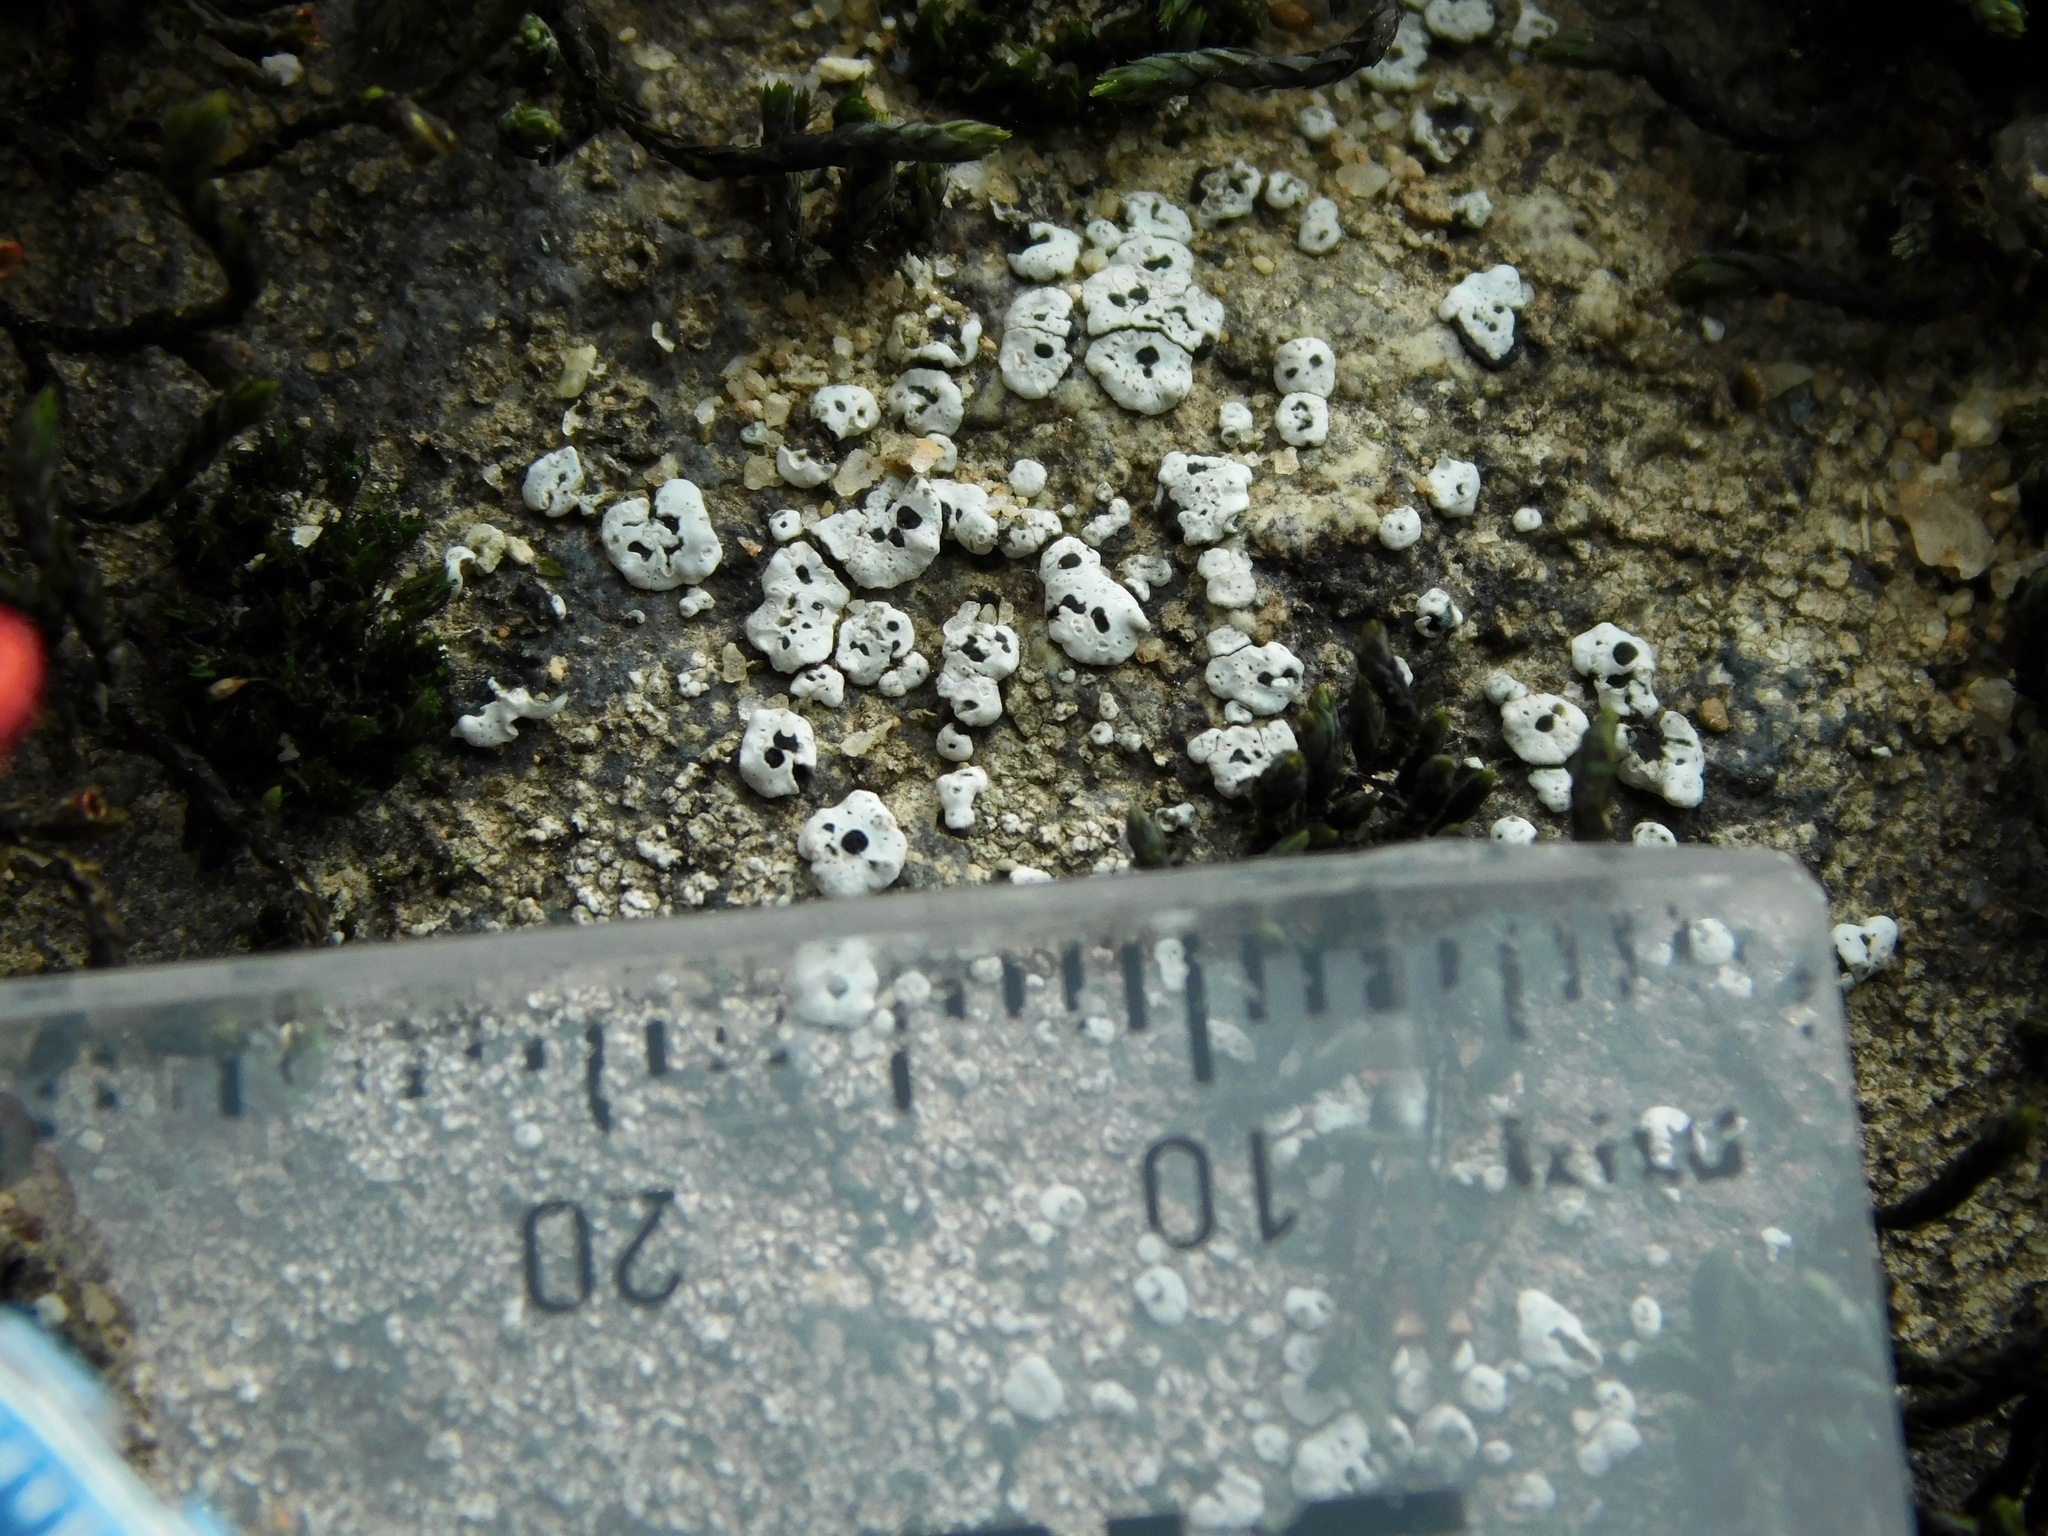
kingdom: Fungi
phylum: Ascomycota
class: Lecanoromycetes
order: Caliciales
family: Caliciaceae
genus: Dermiscellum
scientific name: Dermiscellum oulocheilum
